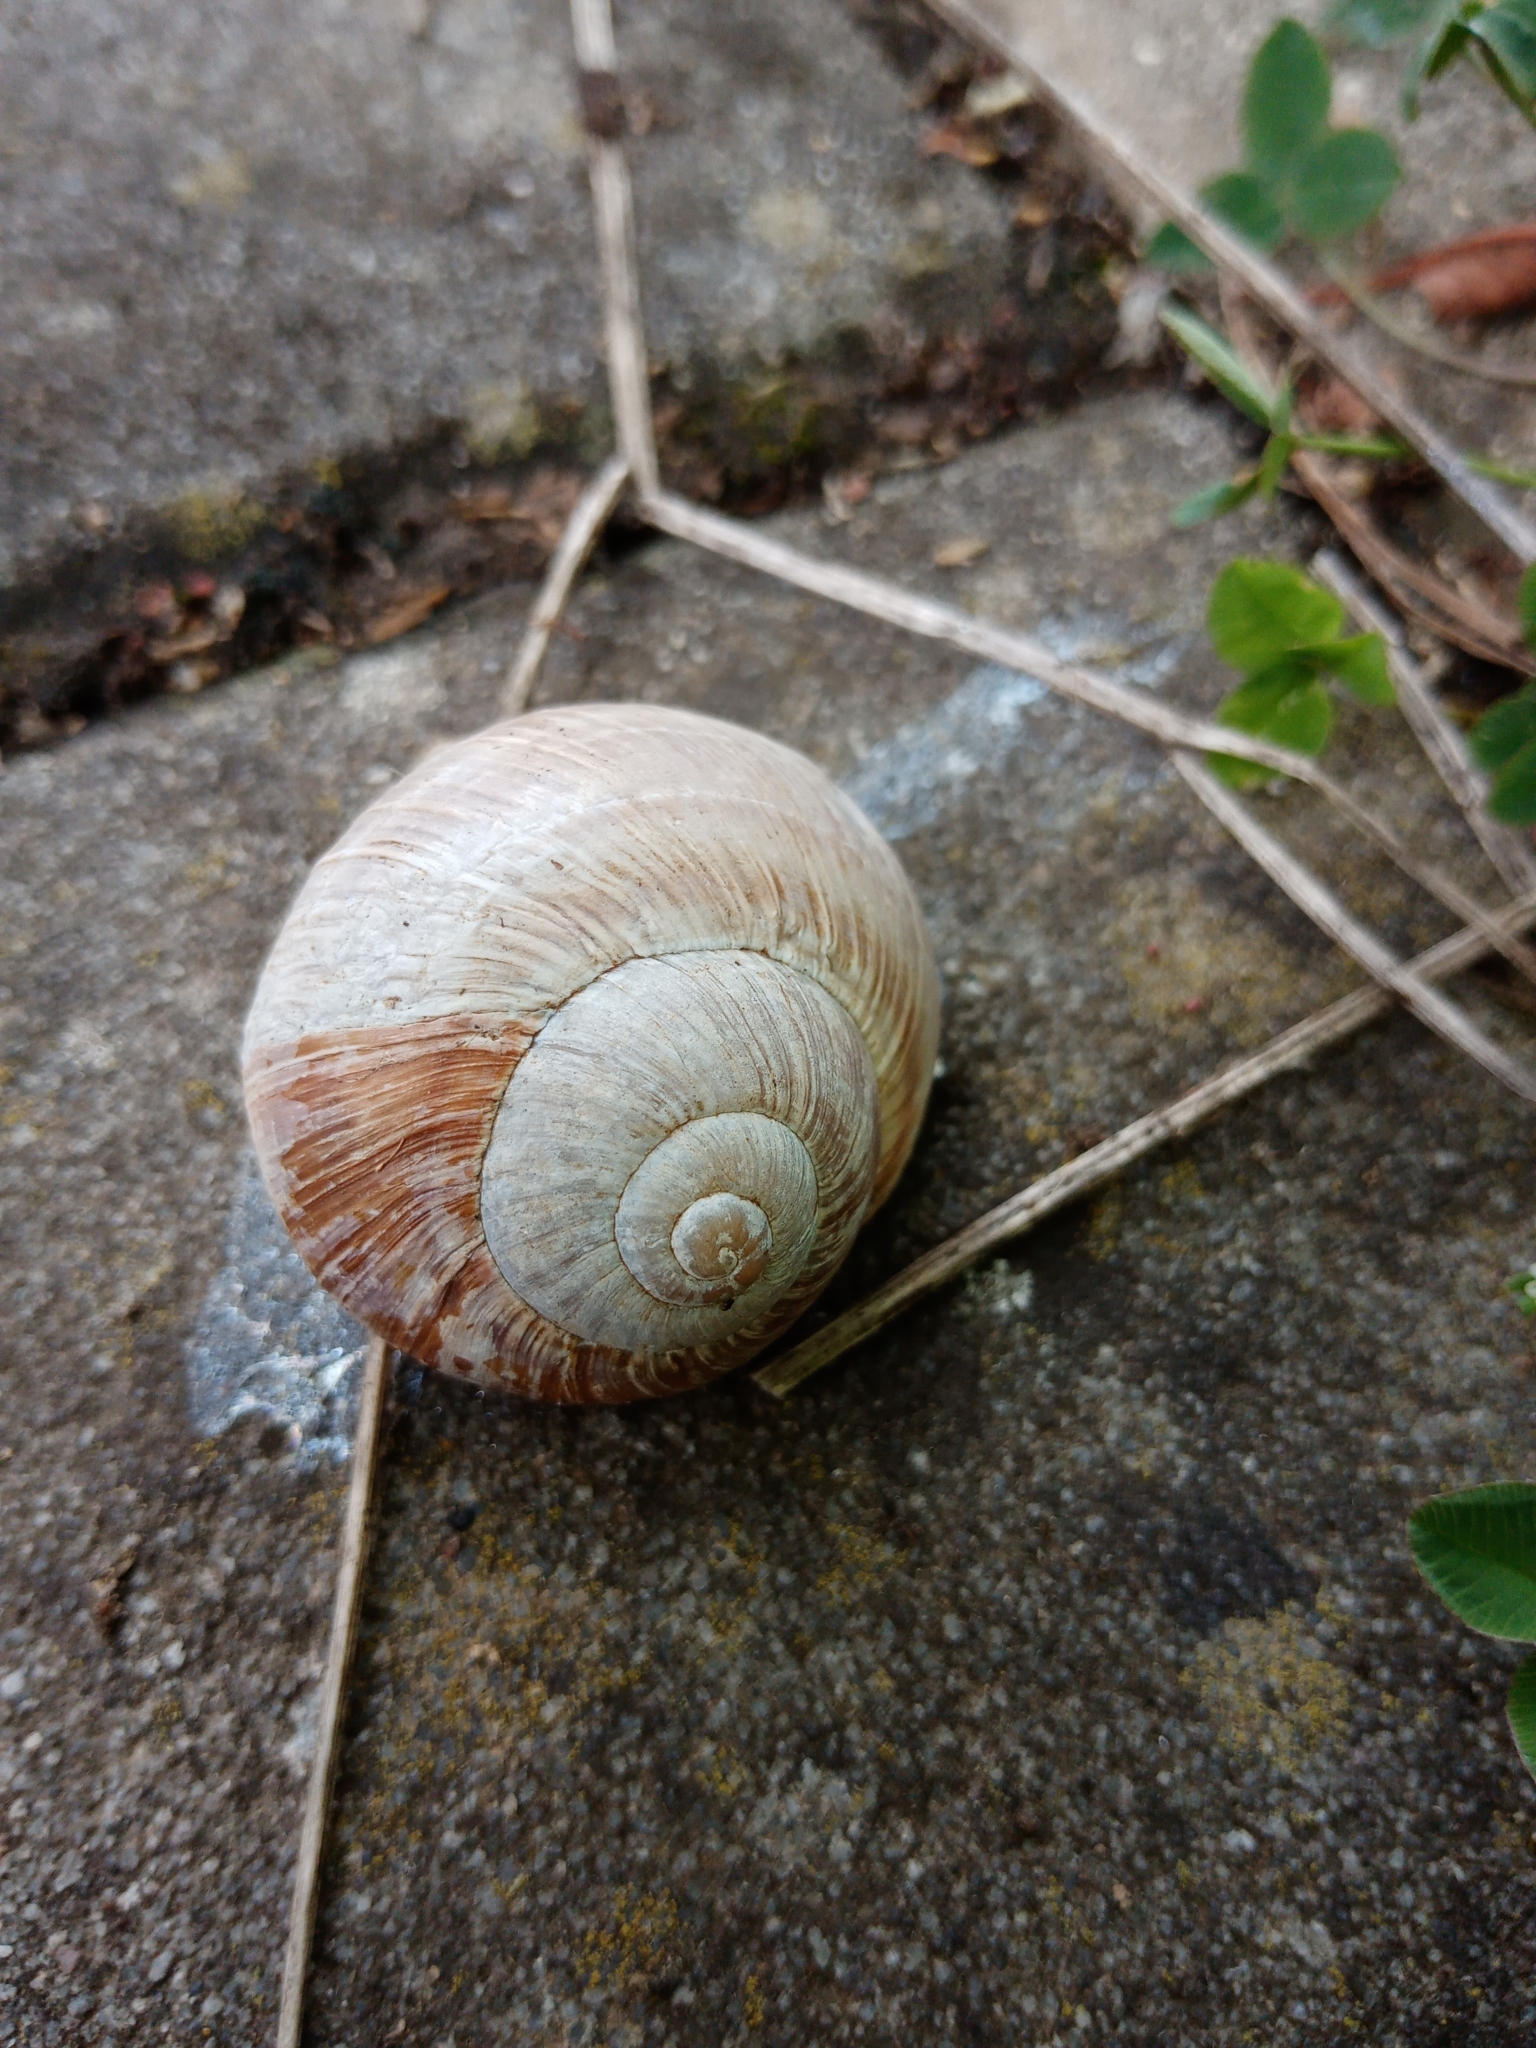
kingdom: Animalia
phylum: Mollusca
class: Gastropoda
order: Stylommatophora
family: Helicidae
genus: Helix
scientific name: Helix pomatia
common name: Roman snail
